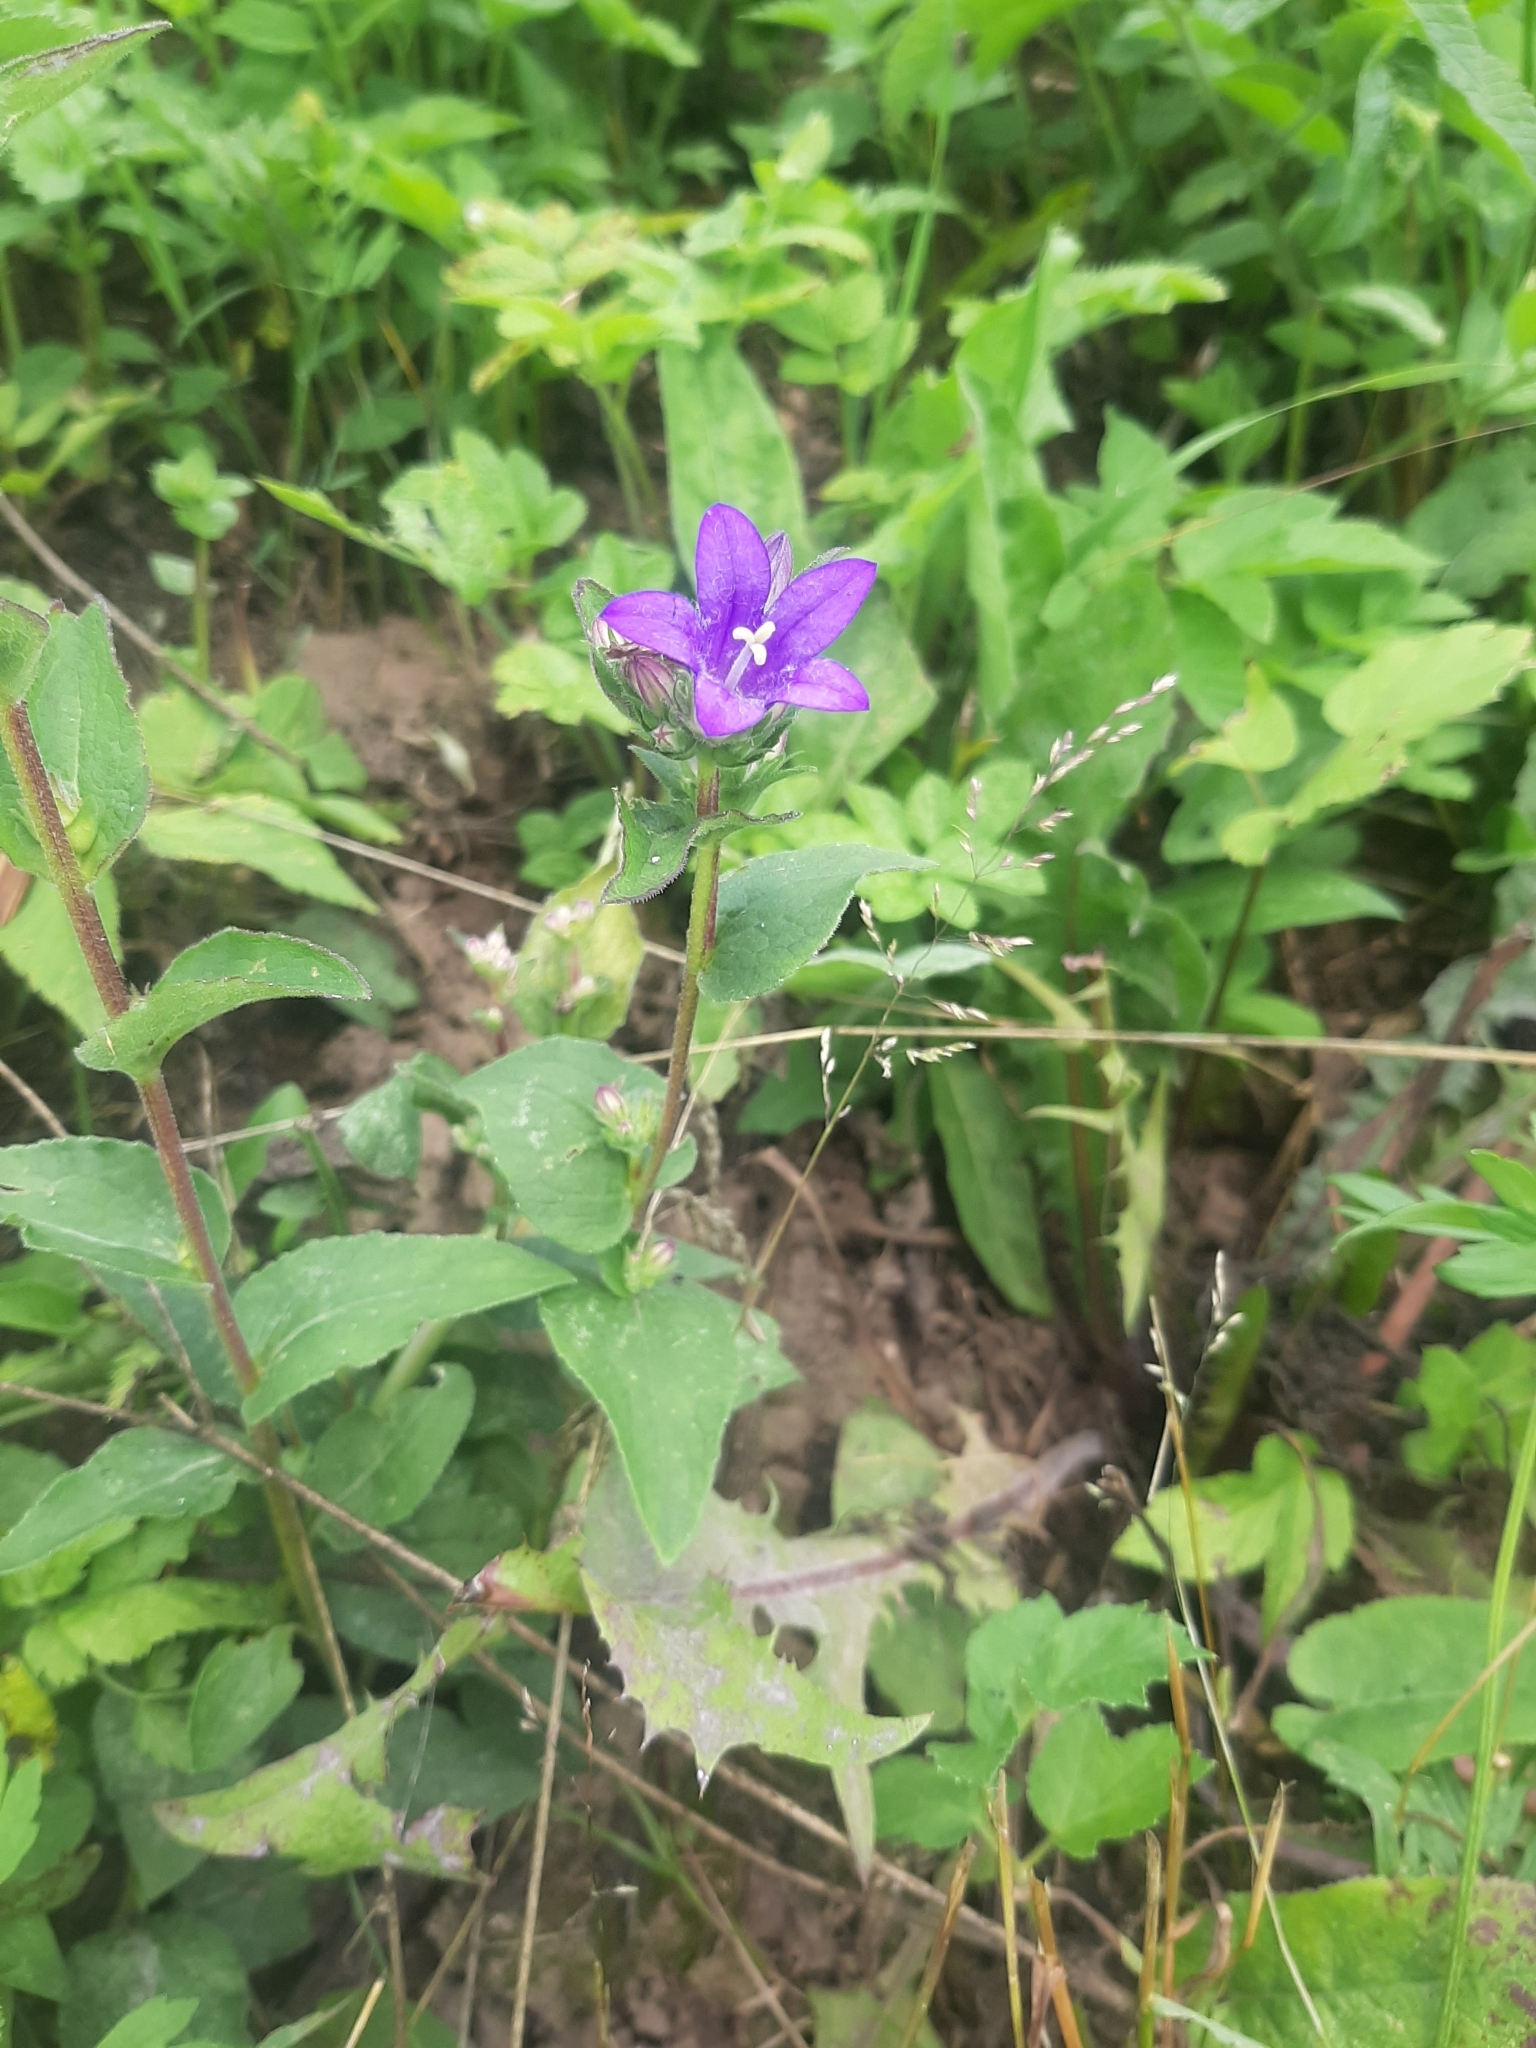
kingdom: Plantae
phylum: Tracheophyta
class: Magnoliopsida
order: Asterales
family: Campanulaceae
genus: Campanula
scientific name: Campanula glomerata
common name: Clustered bellflower
